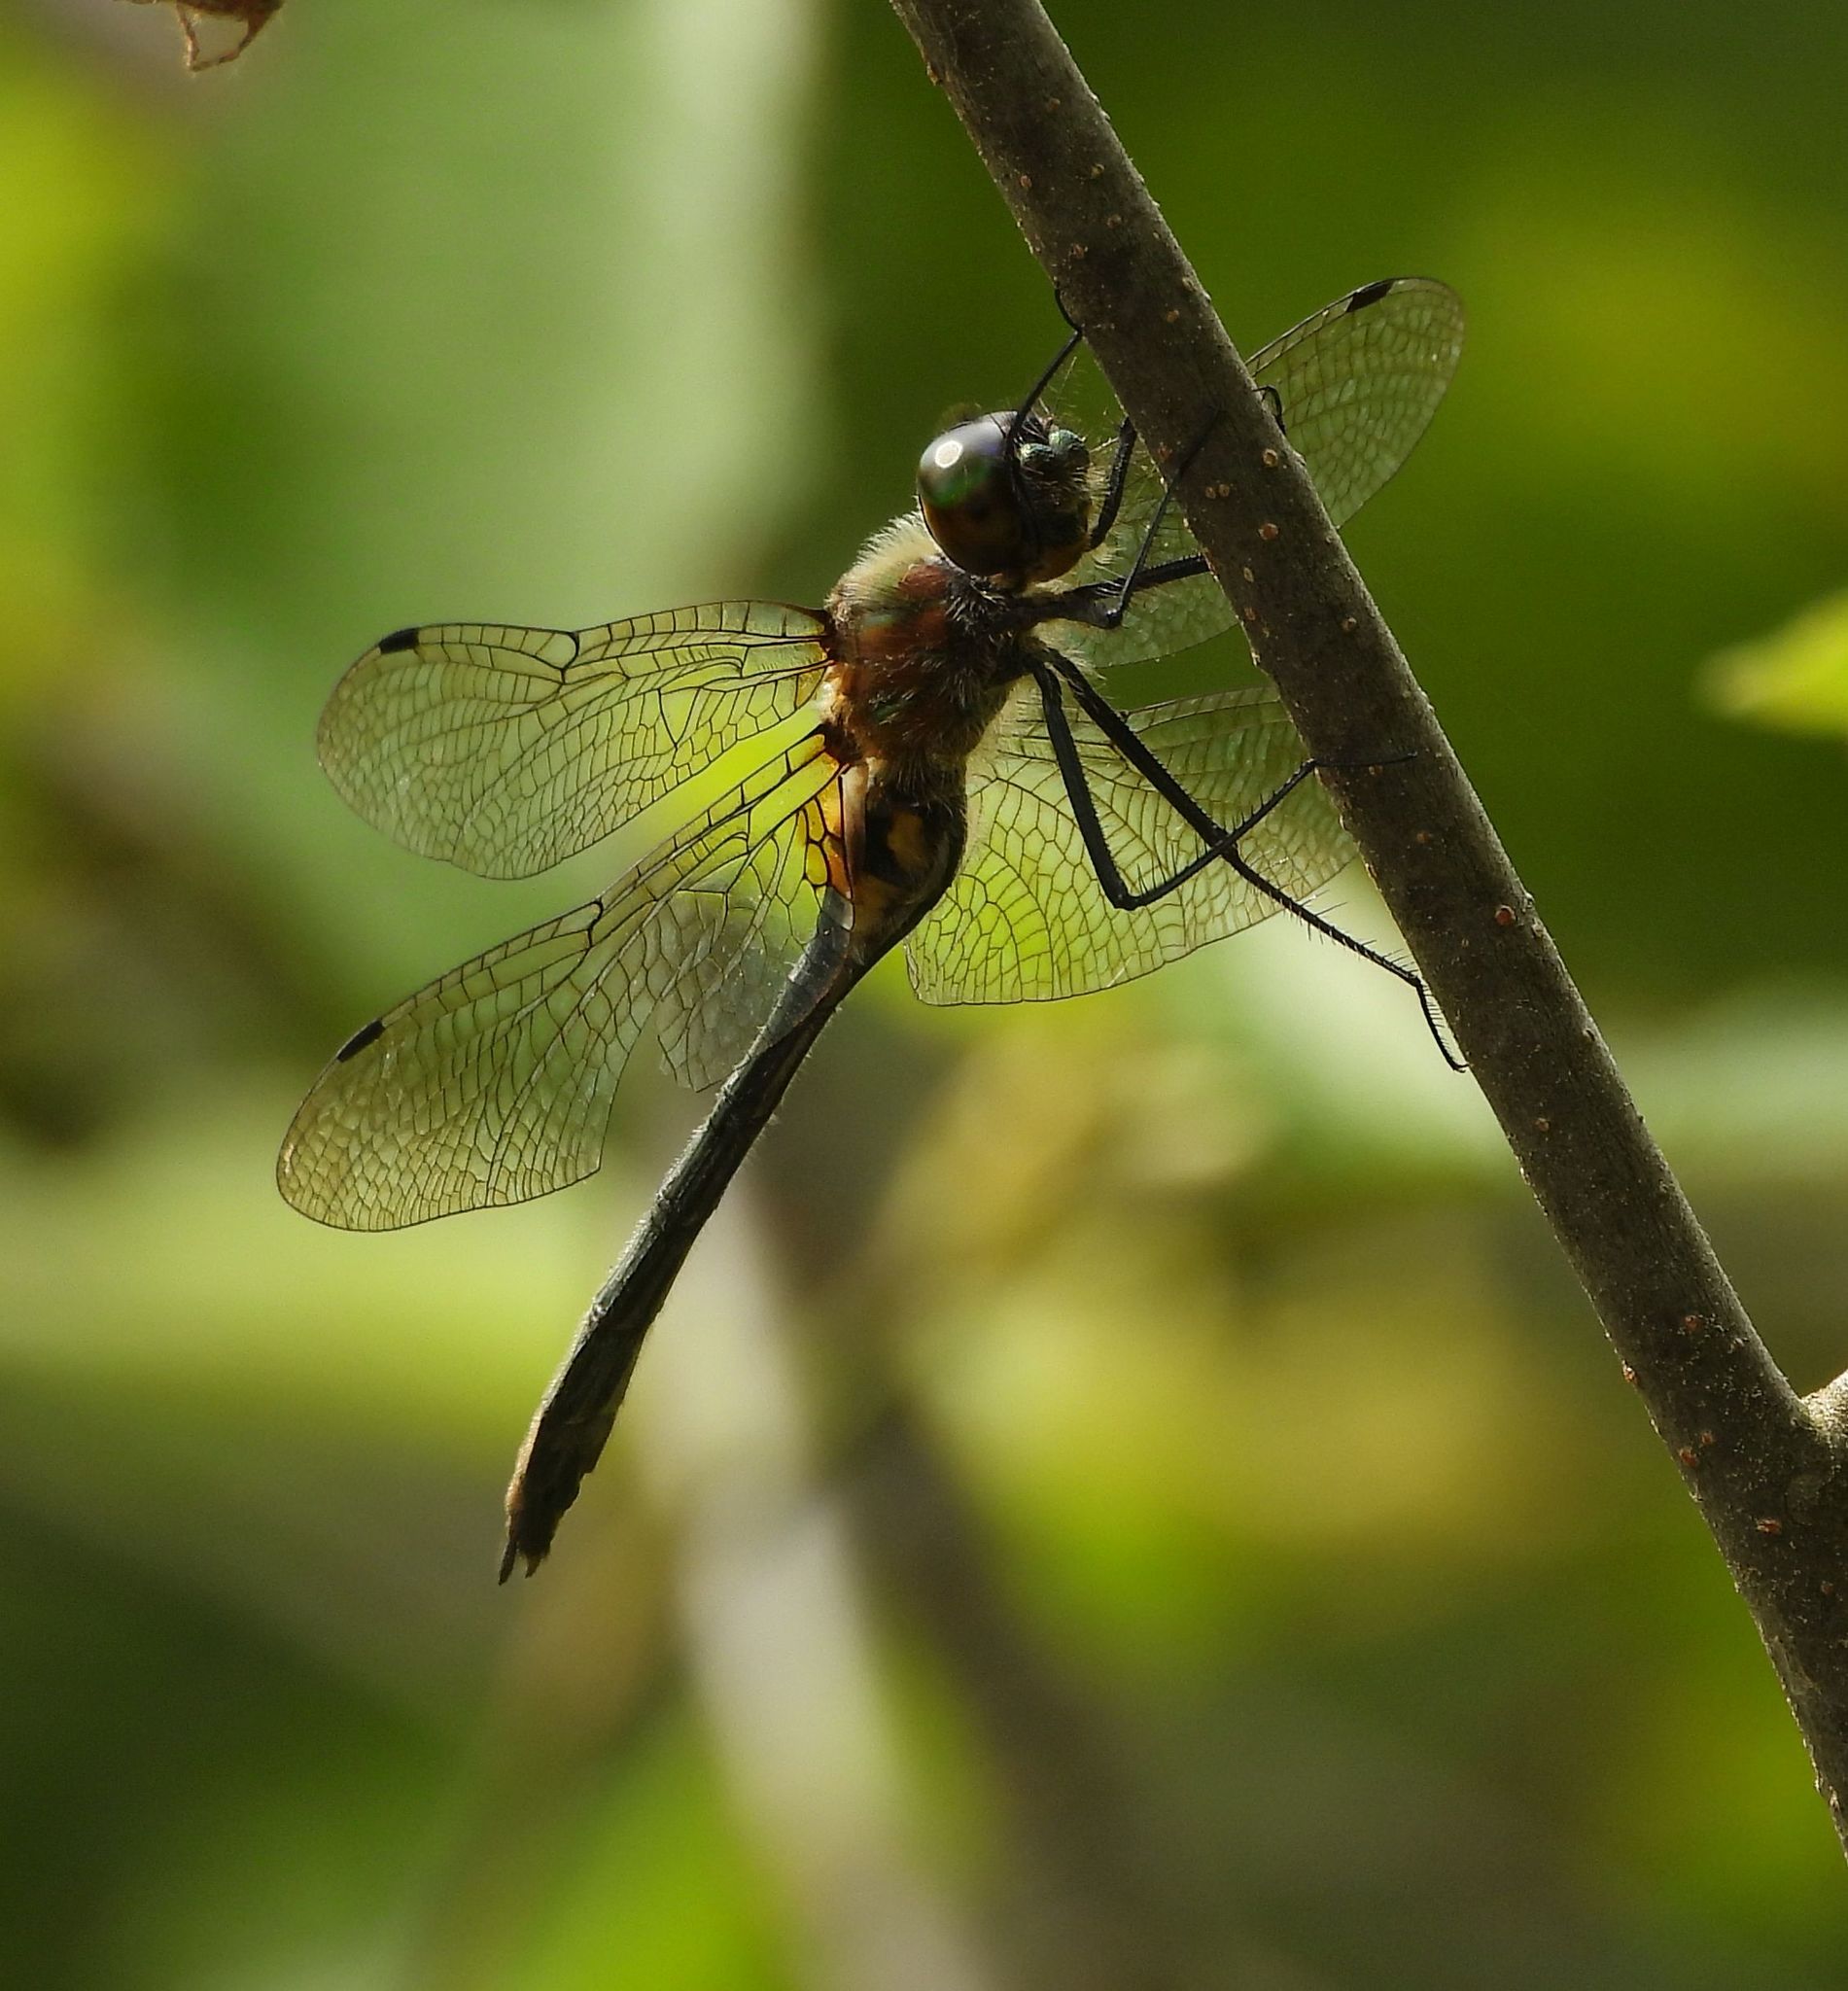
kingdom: Animalia
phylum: Arthropoda
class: Insecta
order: Odonata
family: Corduliidae
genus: Dorocordulia
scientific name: Dorocordulia libera
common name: Racket-tailed emerald
